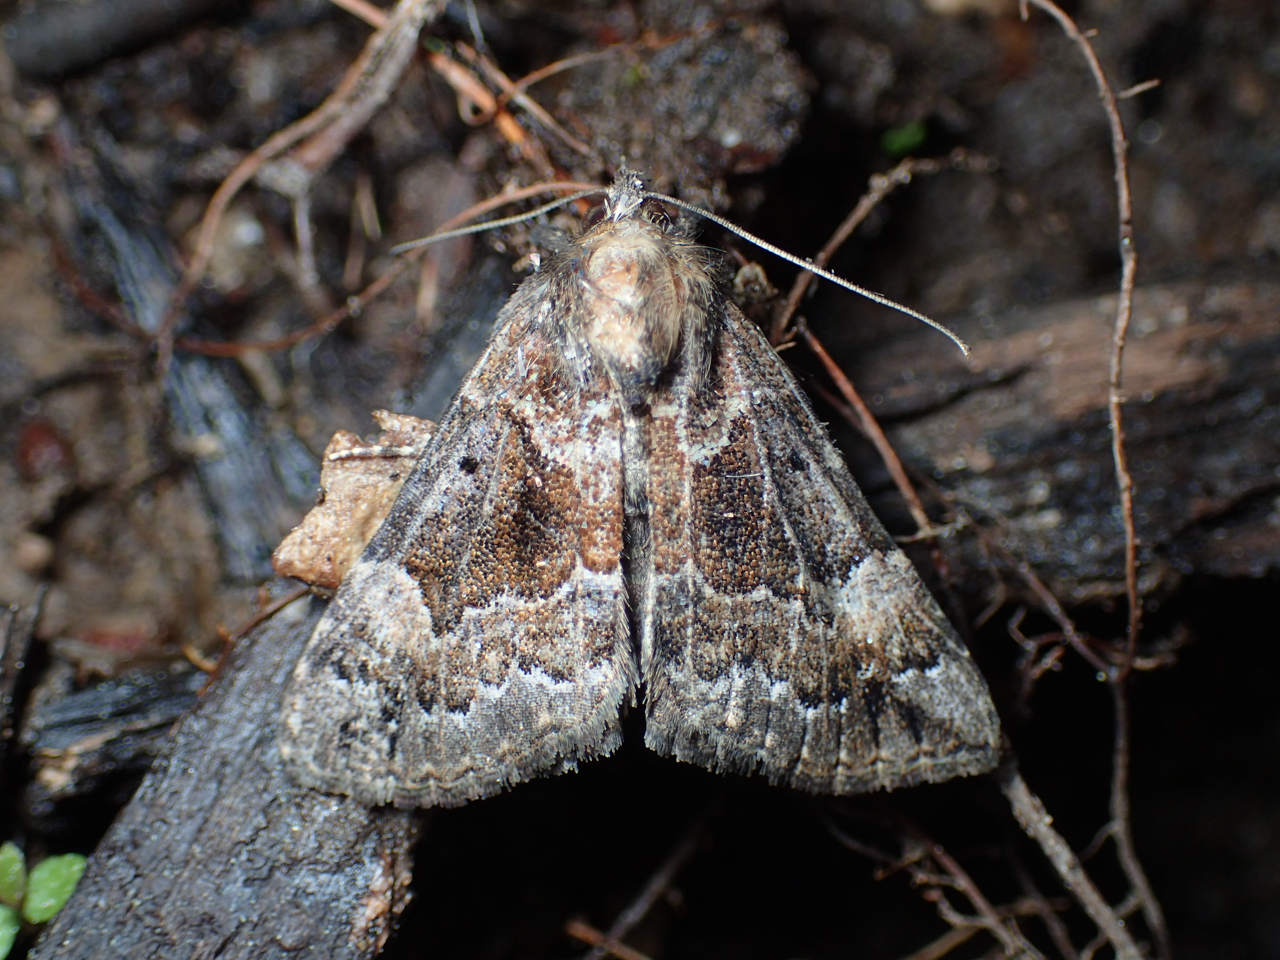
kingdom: Animalia
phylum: Arthropoda
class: Insecta
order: Lepidoptera
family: Erebidae
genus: Hypena
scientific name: Hypena palparia
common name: Mottled bomolocha moth
